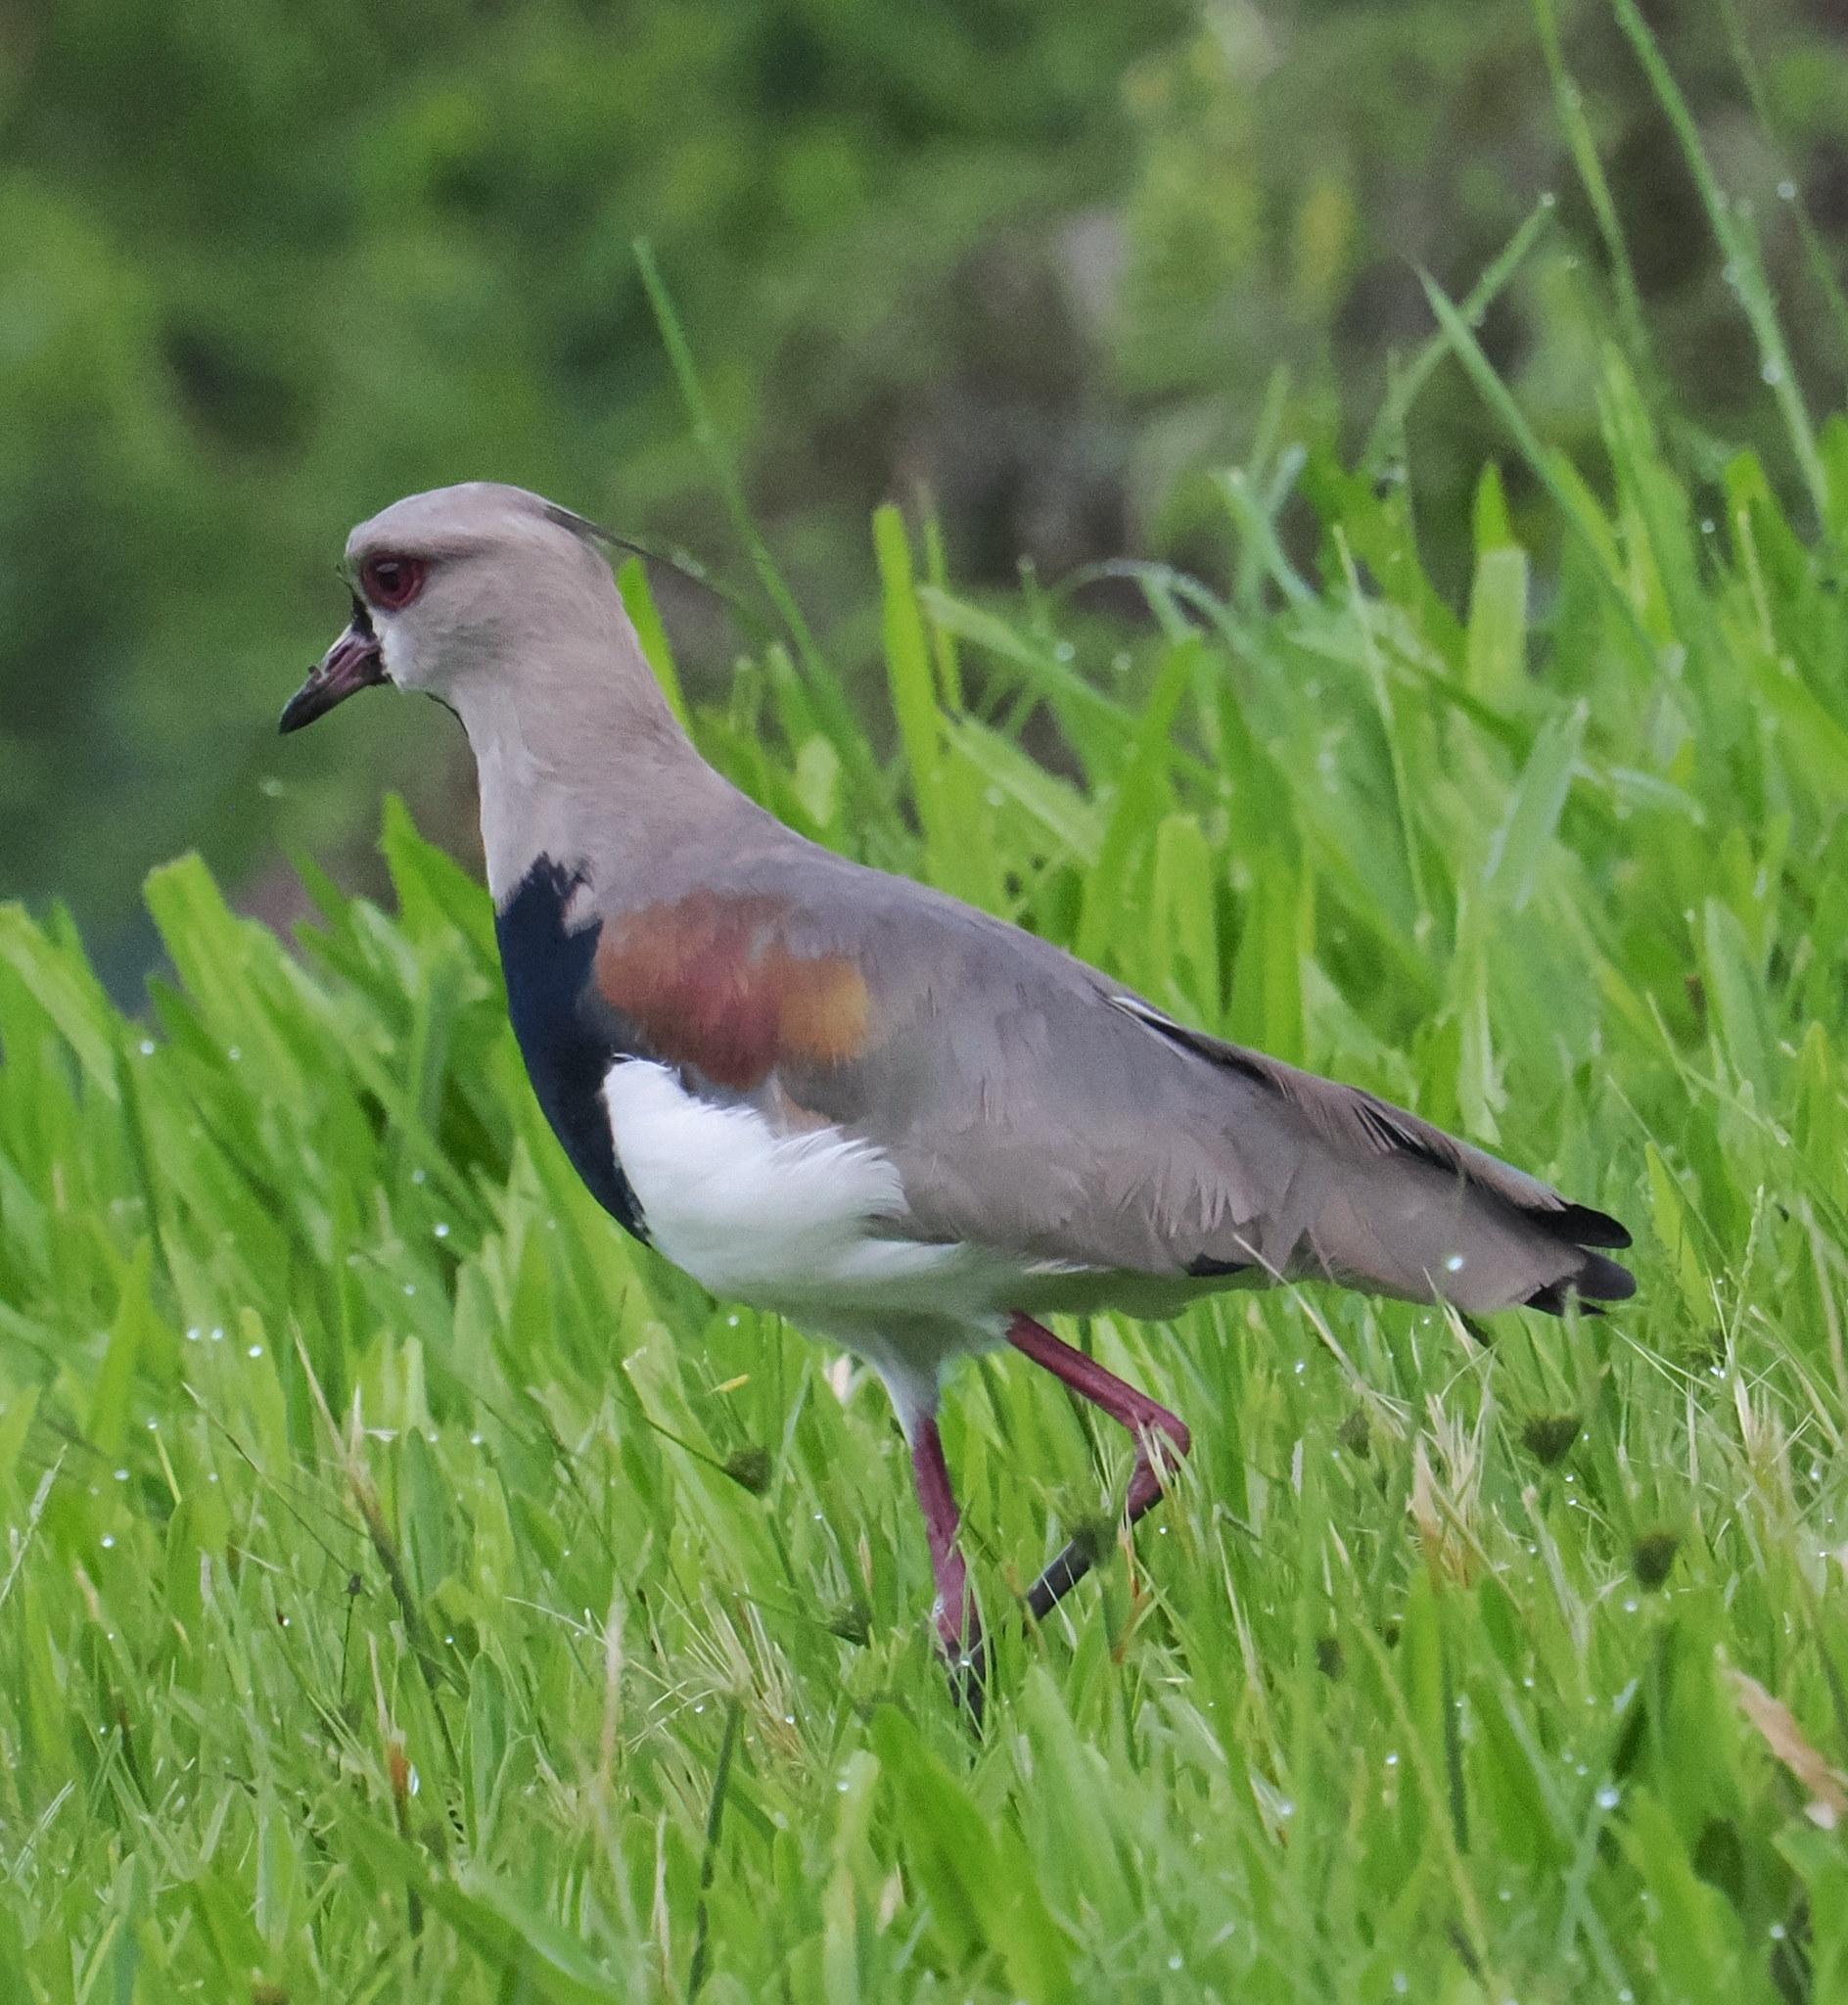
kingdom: Animalia
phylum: Chordata
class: Aves
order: Charadriiformes
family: Charadriidae
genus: Vanellus
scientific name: Vanellus chilensis
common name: Southern lapwing
